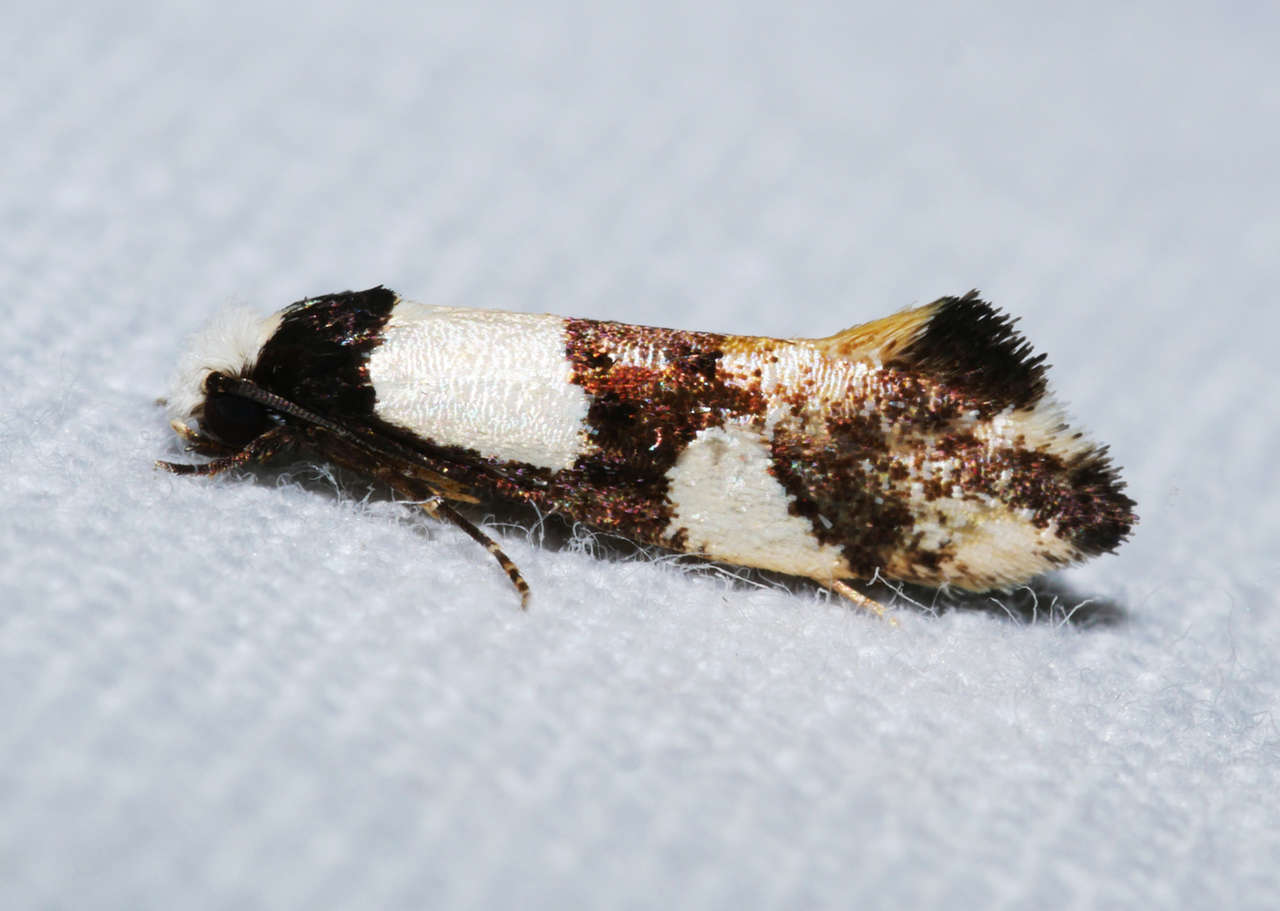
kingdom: Animalia
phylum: Arthropoda
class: Insecta
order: Lepidoptera
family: Tineidae
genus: Monopis
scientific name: Monopis icterogastra
